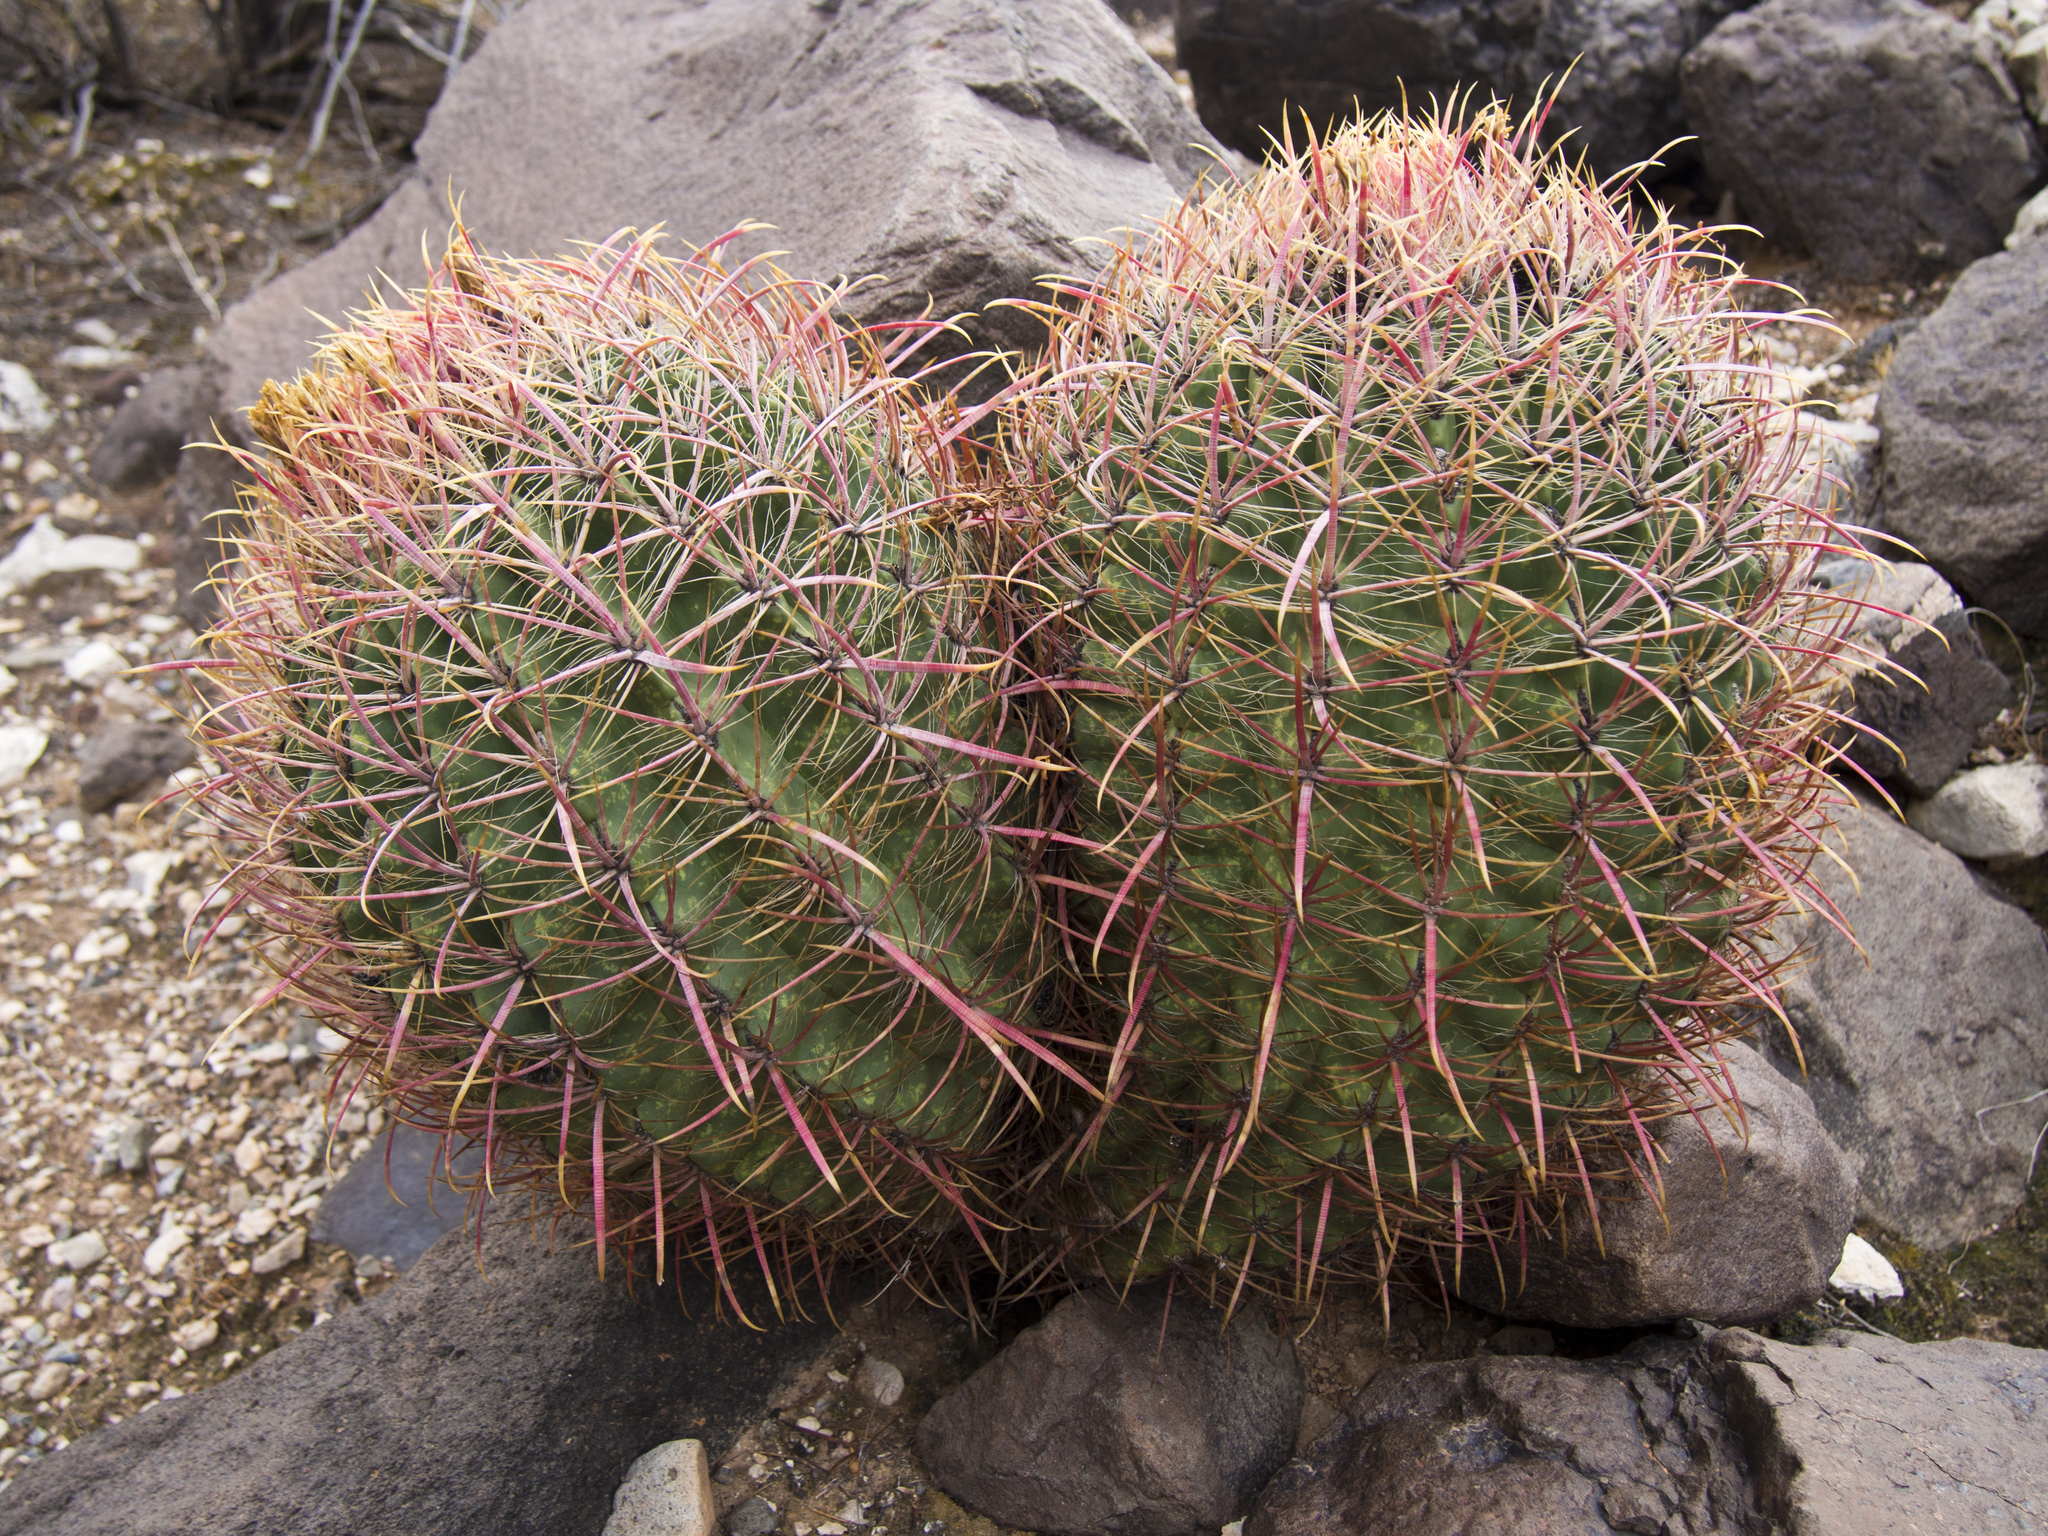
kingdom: Plantae
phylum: Tracheophyta
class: Magnoliopsida
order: Caryophyllales
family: Cactaceae
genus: Ferocactus
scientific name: Ferocactus cylindraceus
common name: California barrel cactus
